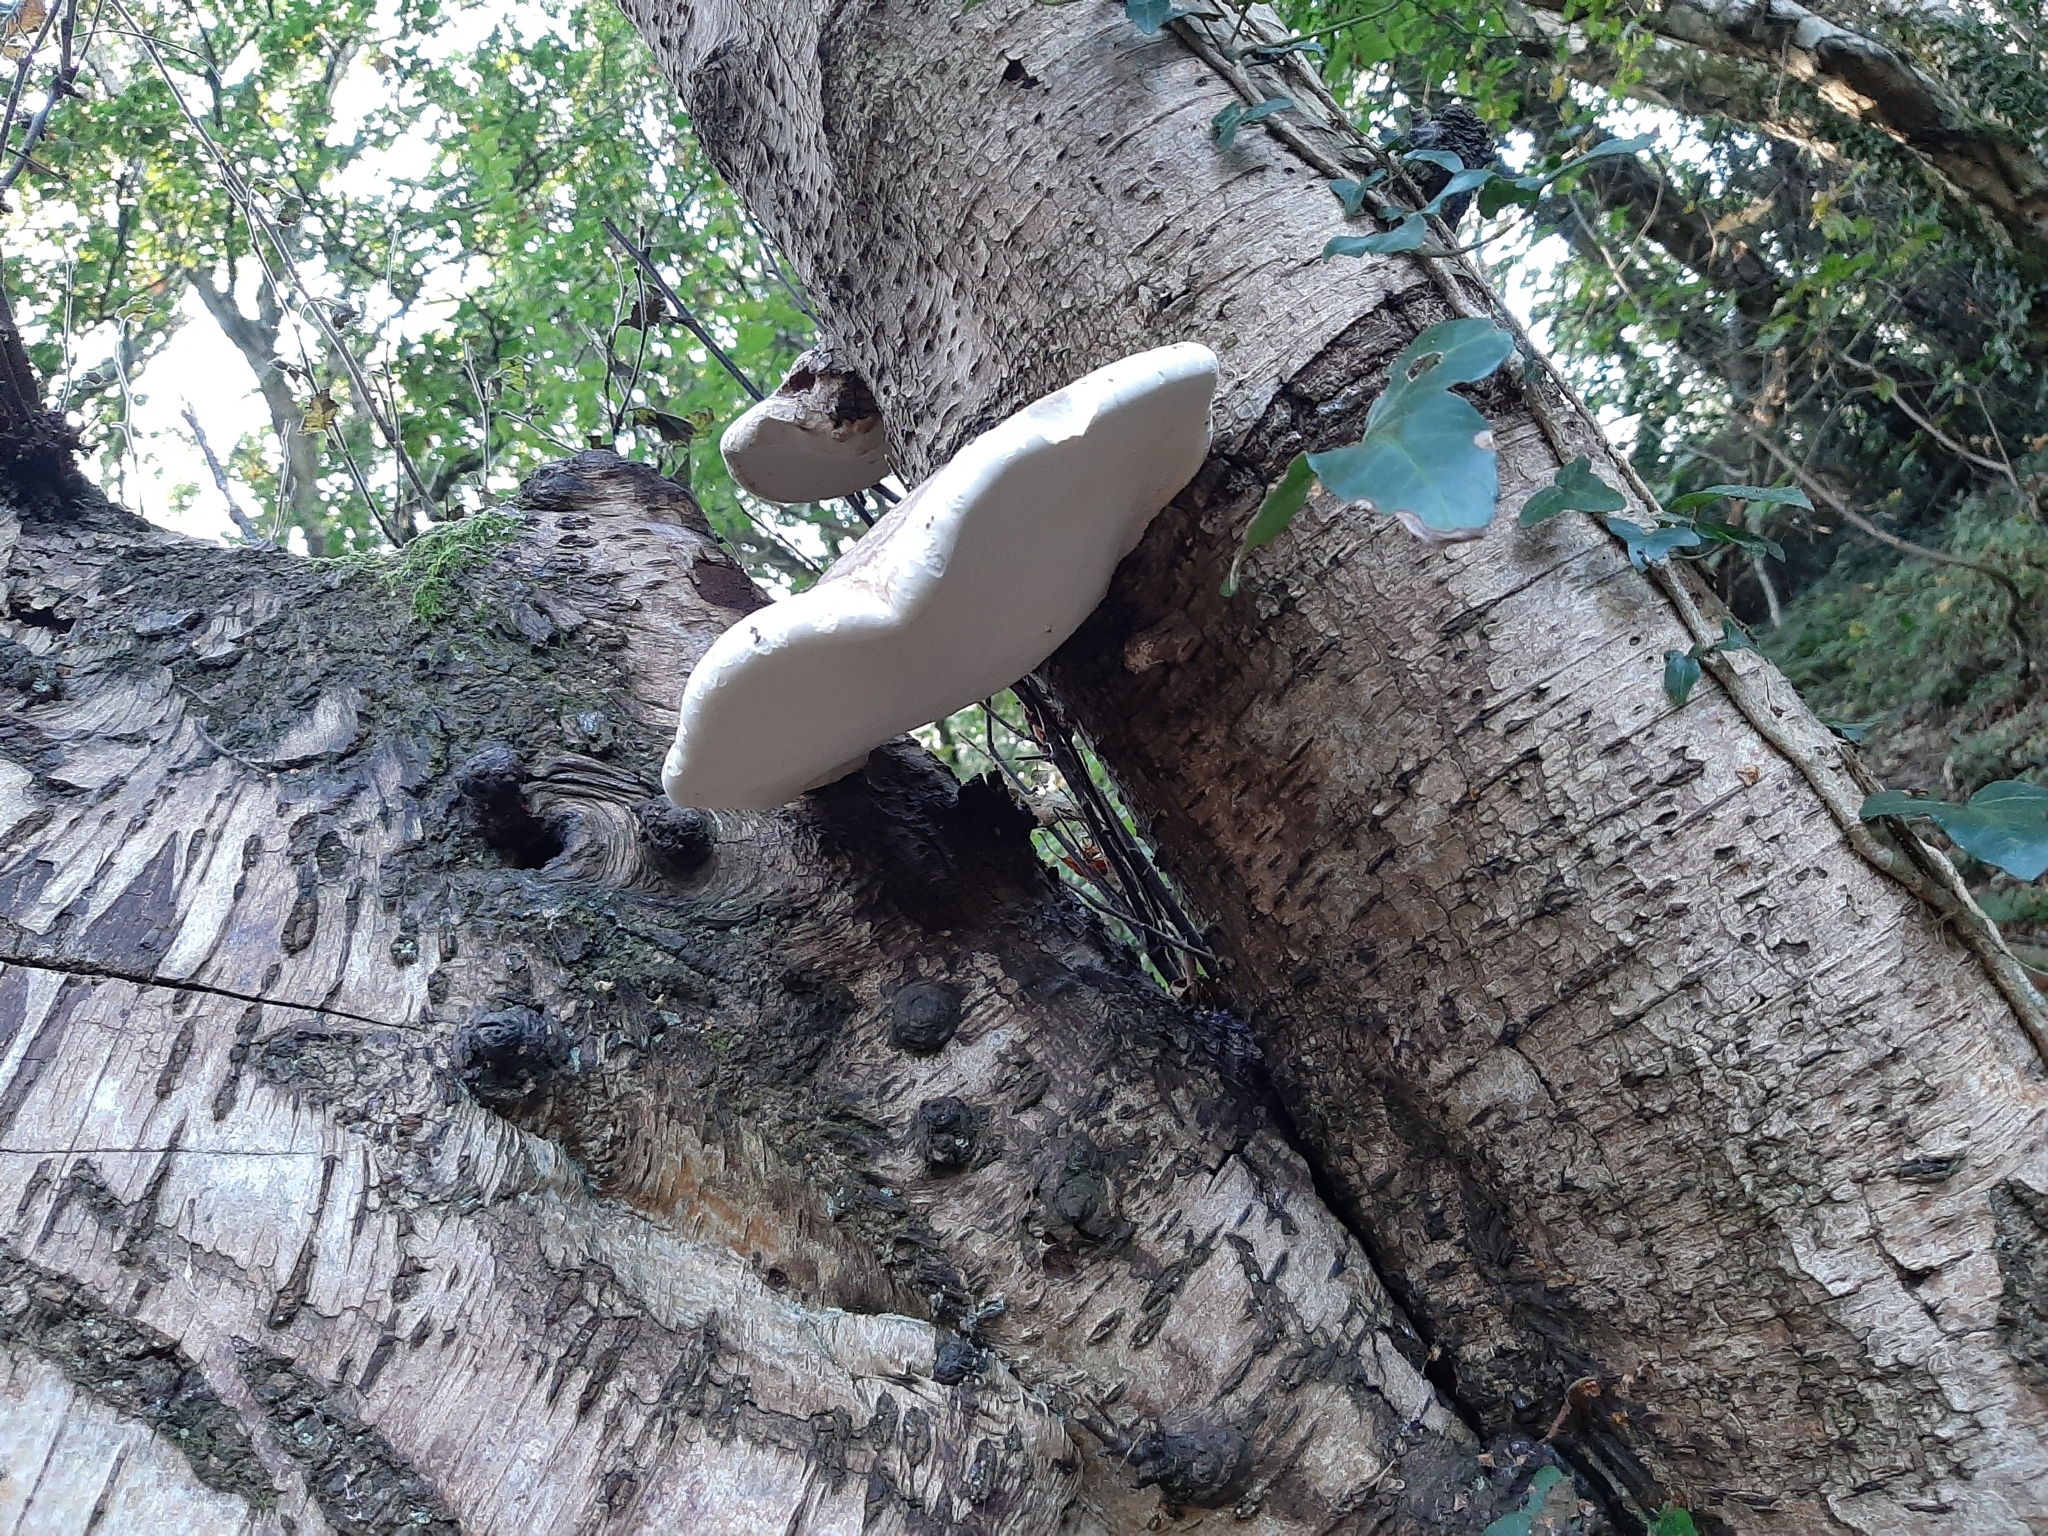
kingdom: Fungi
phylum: Basidiomycota
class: Agaricomycetes
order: Polyporales
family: Fomitopsidaceae
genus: Fomitopsis
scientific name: Fomitopsis betulina
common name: Birch polypore
